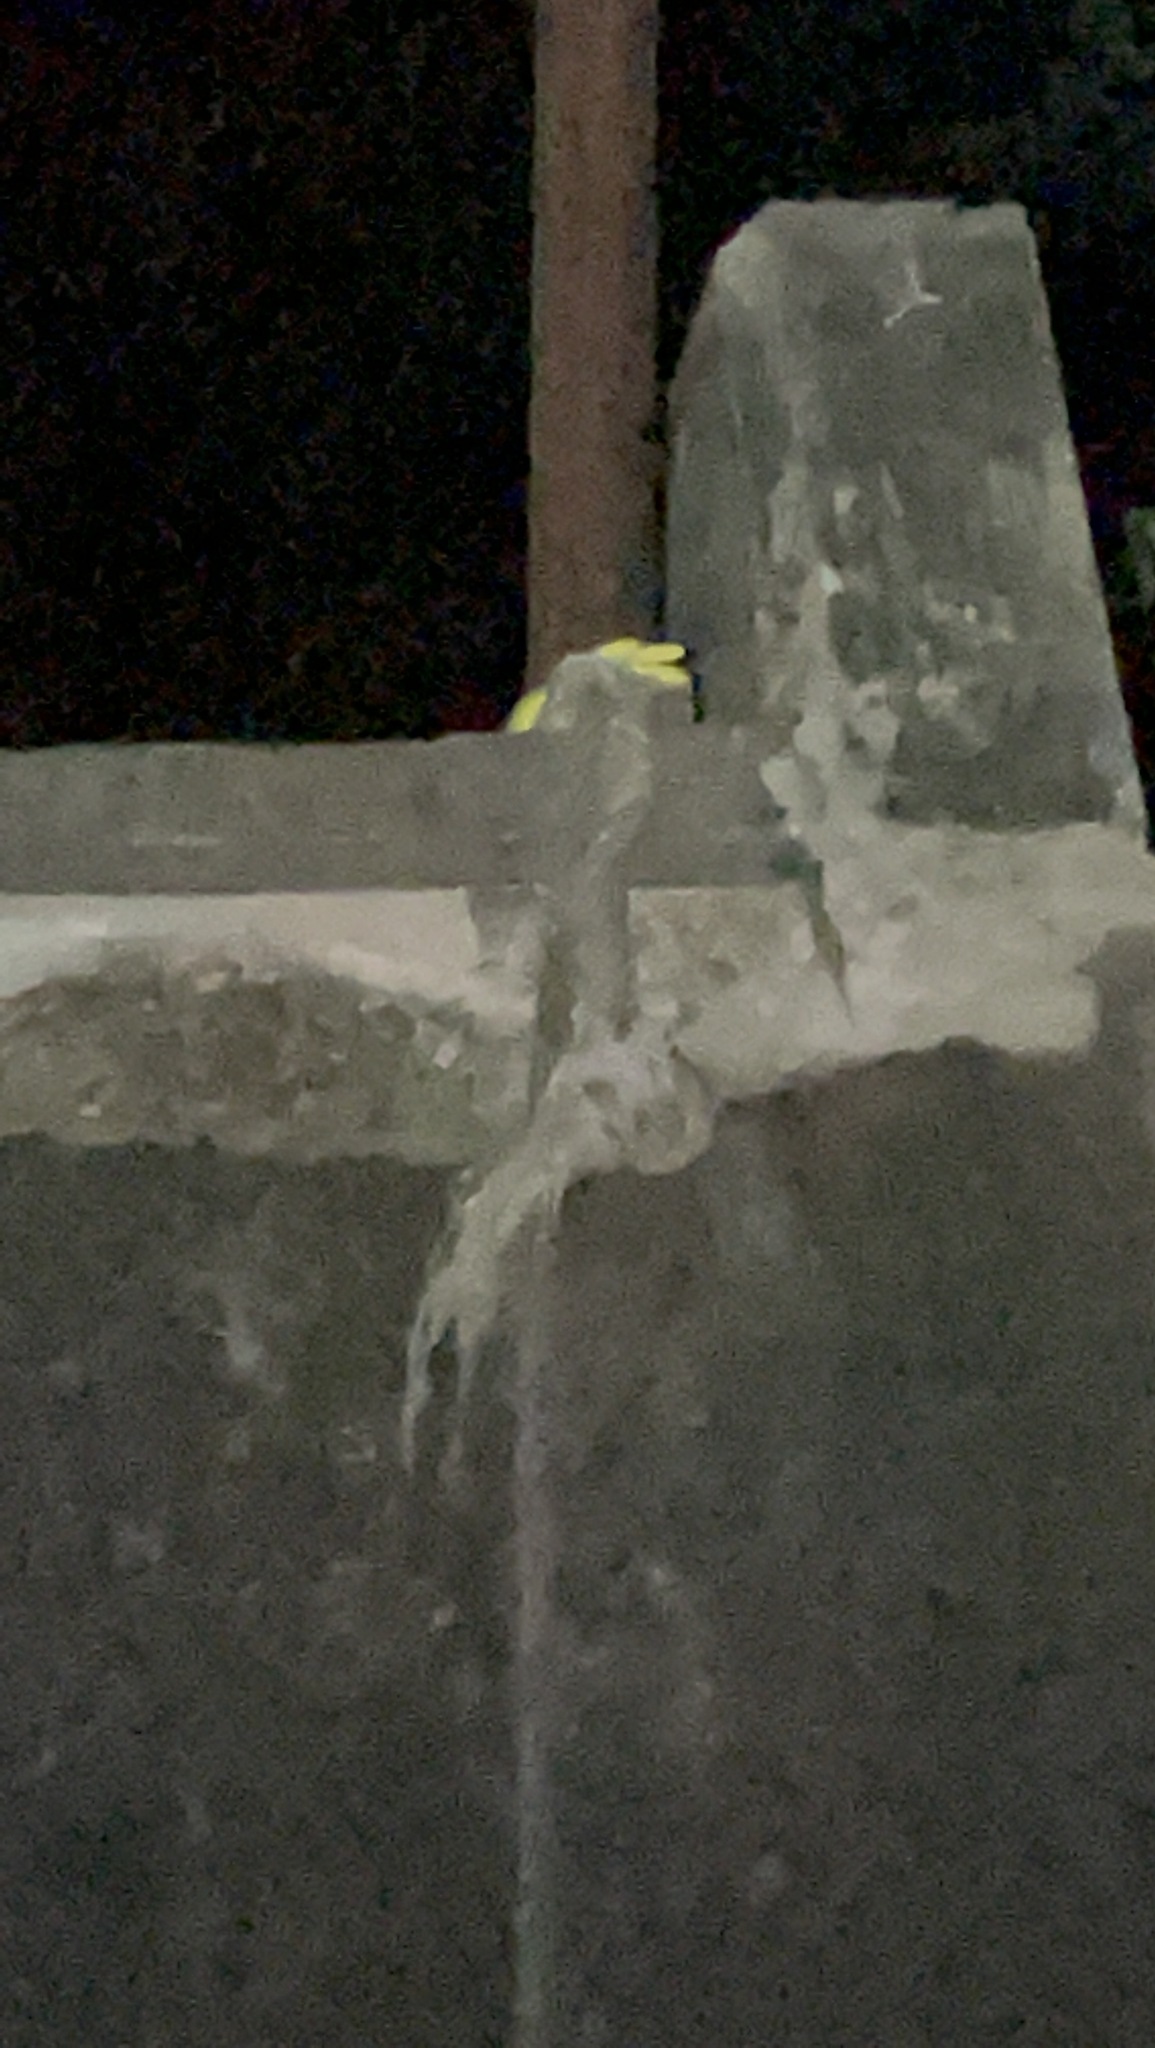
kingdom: Animalia
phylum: Chordata
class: Squamata
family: Viperidae
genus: Trimeresurus
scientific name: Trimeresurus albolabris
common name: White-lipped pitviper
